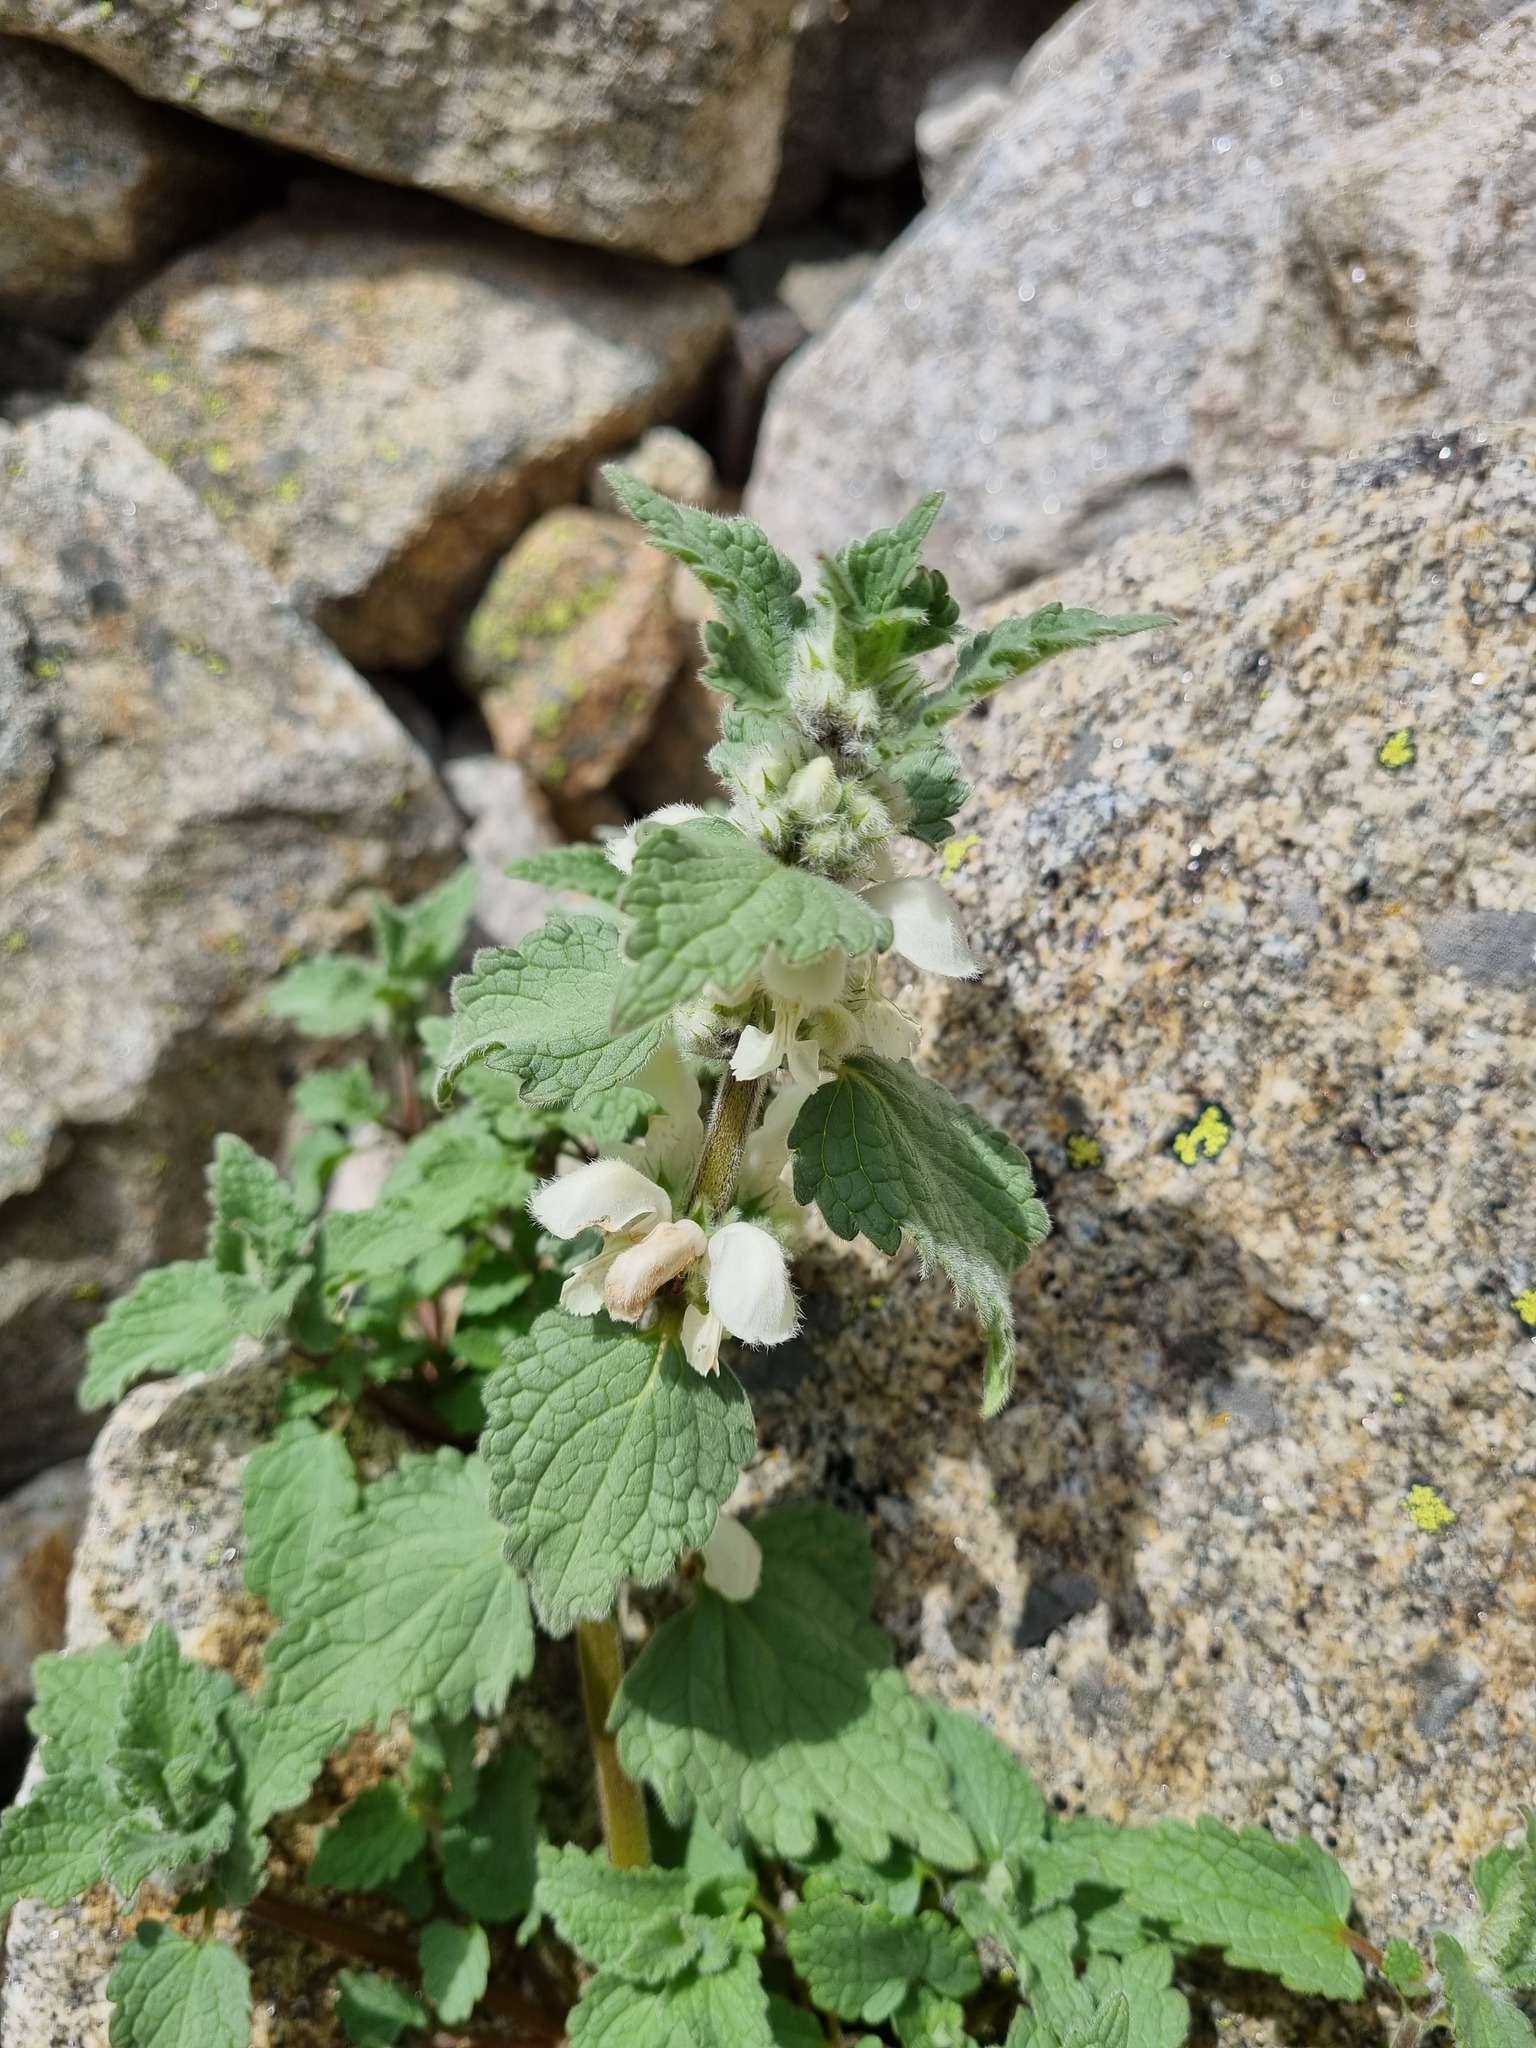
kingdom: Plantae
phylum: Tracheophyta
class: Magnoliopsida
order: Lamiales
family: Lamiaceae
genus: Lamium
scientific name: Lamium tomentosum
